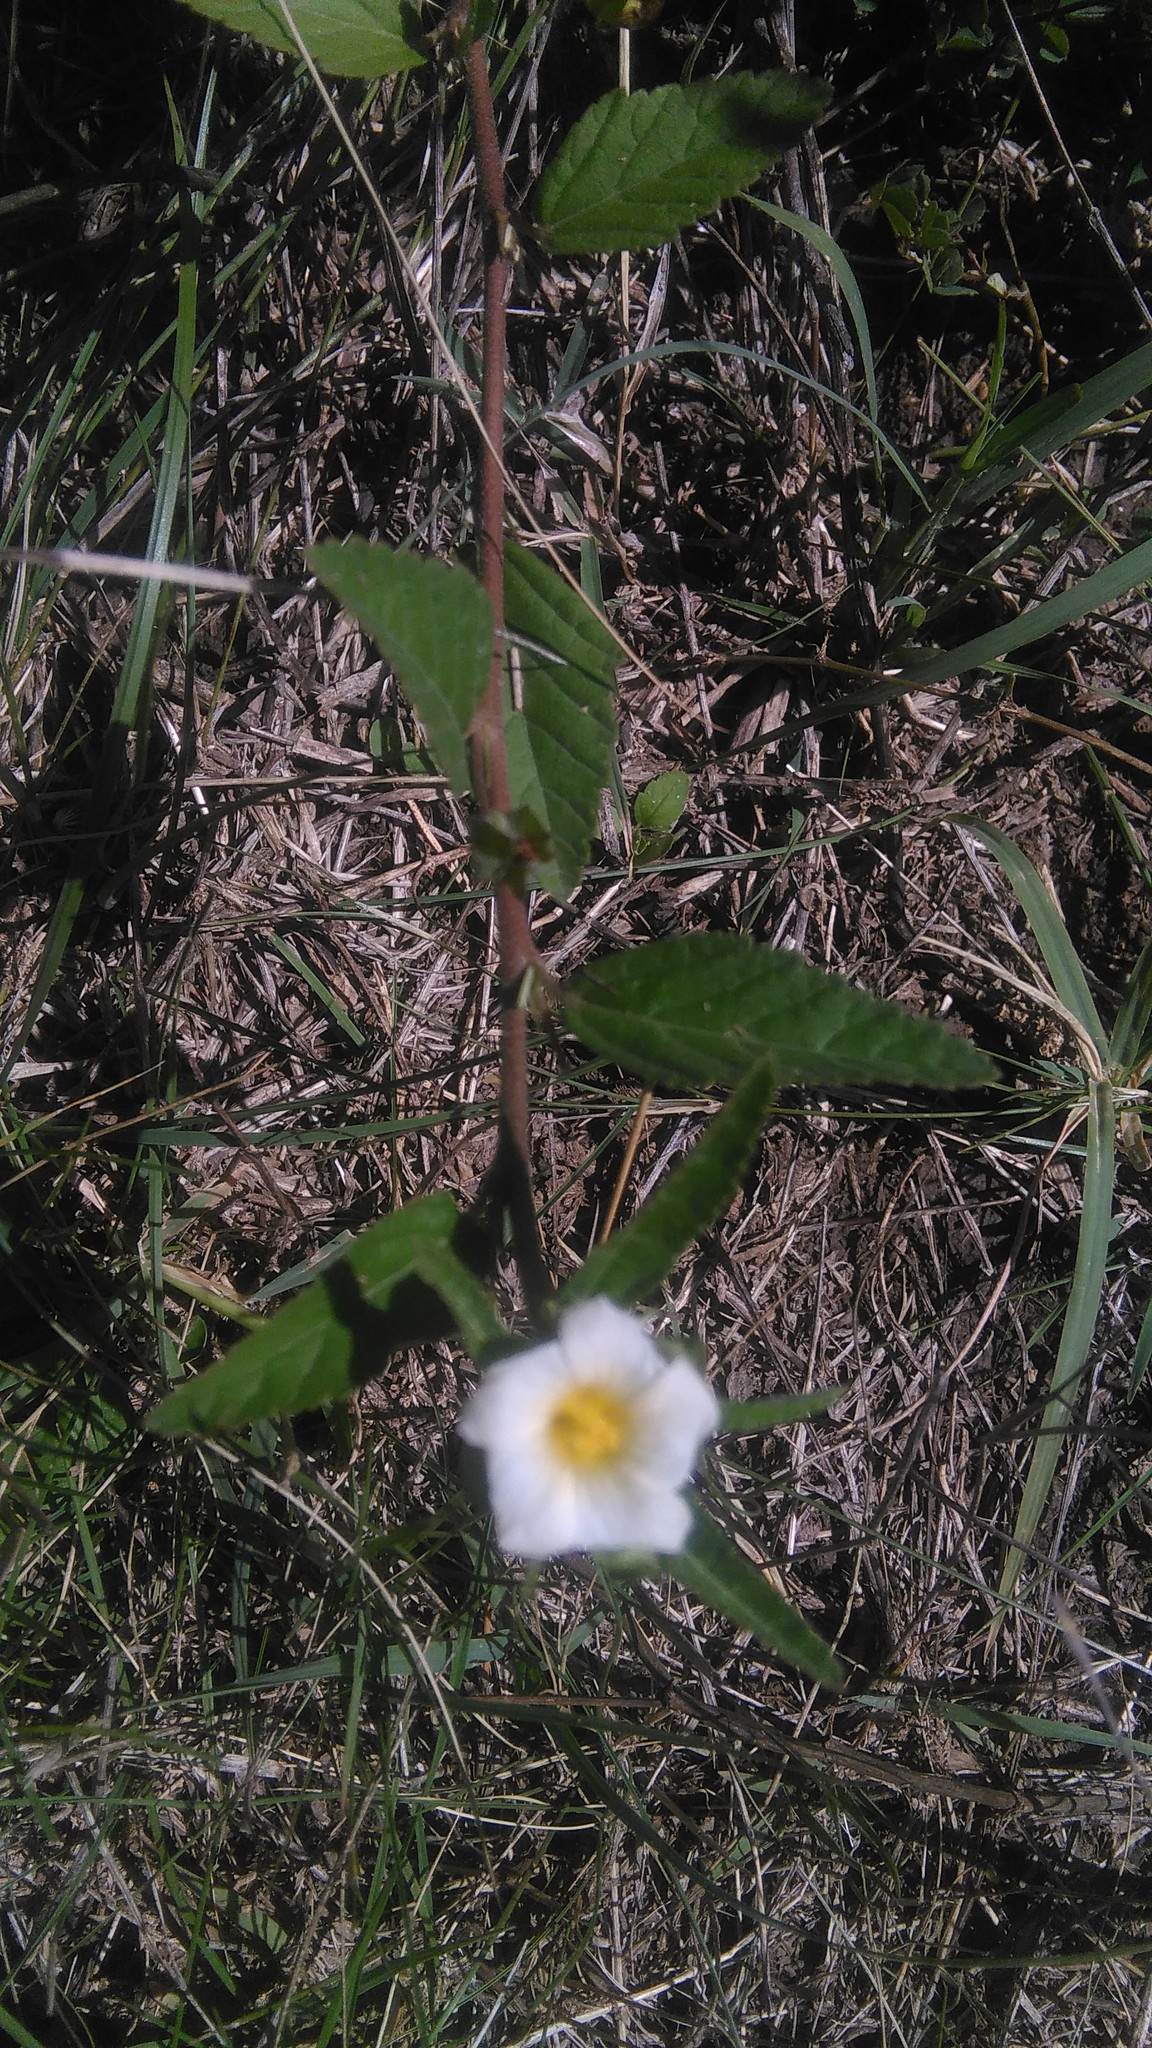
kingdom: Plantae
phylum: Tracheophyta
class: Magnoliopsida
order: Malvales
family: Malvaceae
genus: Sida
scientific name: Sida rhombifolia
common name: Queensland-hemp
